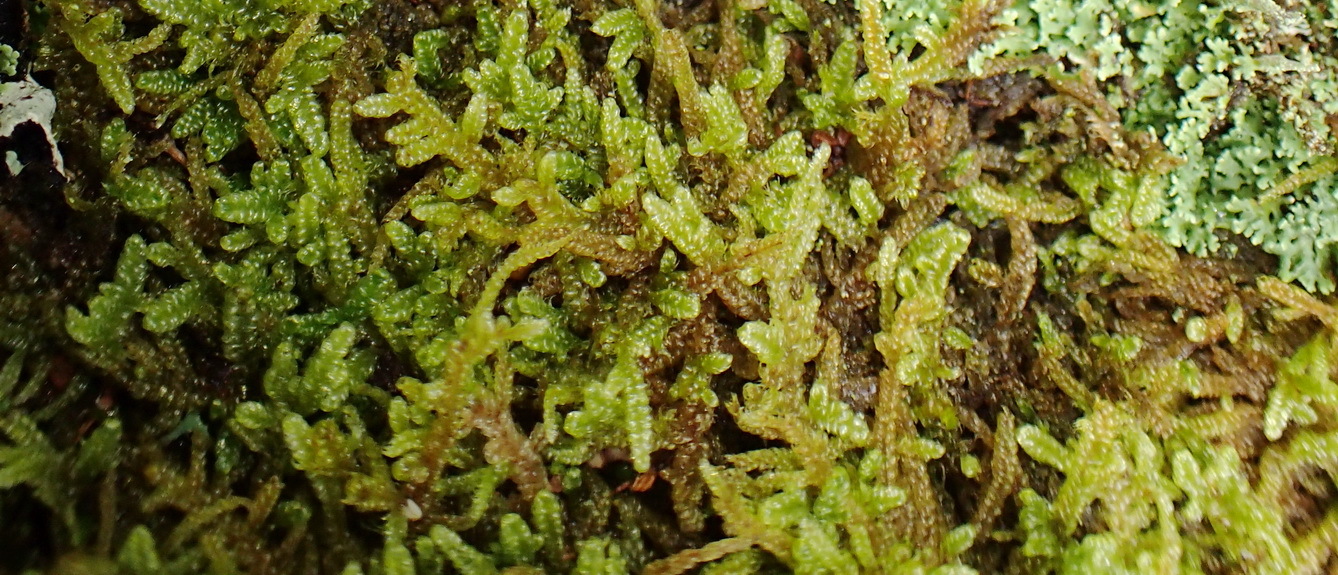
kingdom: Plantae
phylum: Bryophyta
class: Bryopsida
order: Hypnales
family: Hypnaceae
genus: Hypnum
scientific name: Hypnum cupressiforme
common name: Cypress-leaved plait-moss
